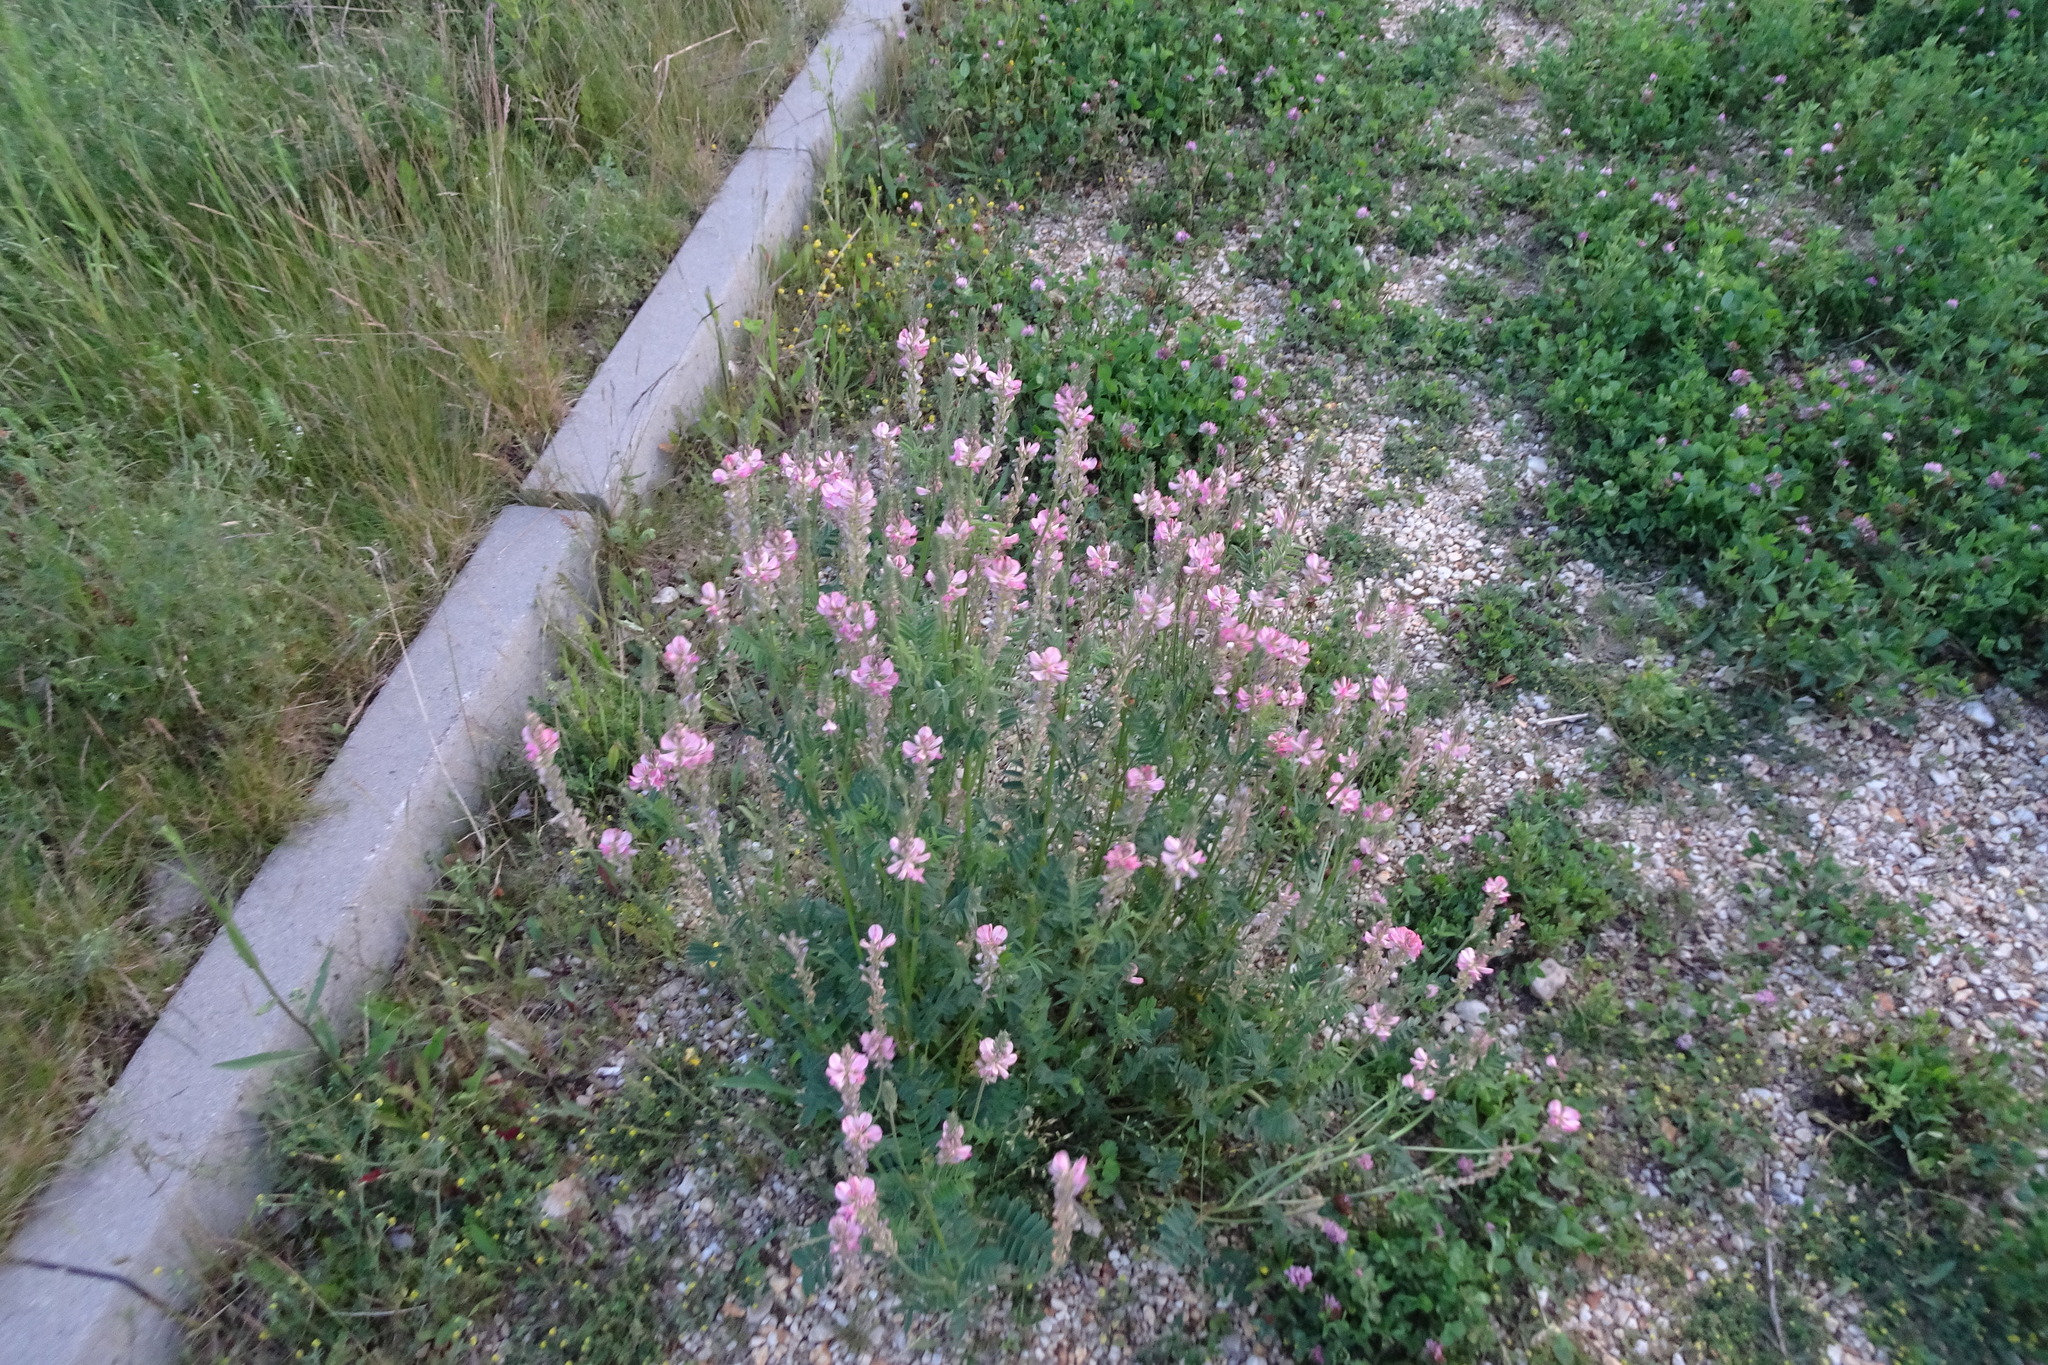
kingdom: Plantae
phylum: Tracheophyta
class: Magnoliopsida
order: Fabales
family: Fabaceae
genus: Onobrychis
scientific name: Onobrychis viciifolia
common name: Sainfoin
